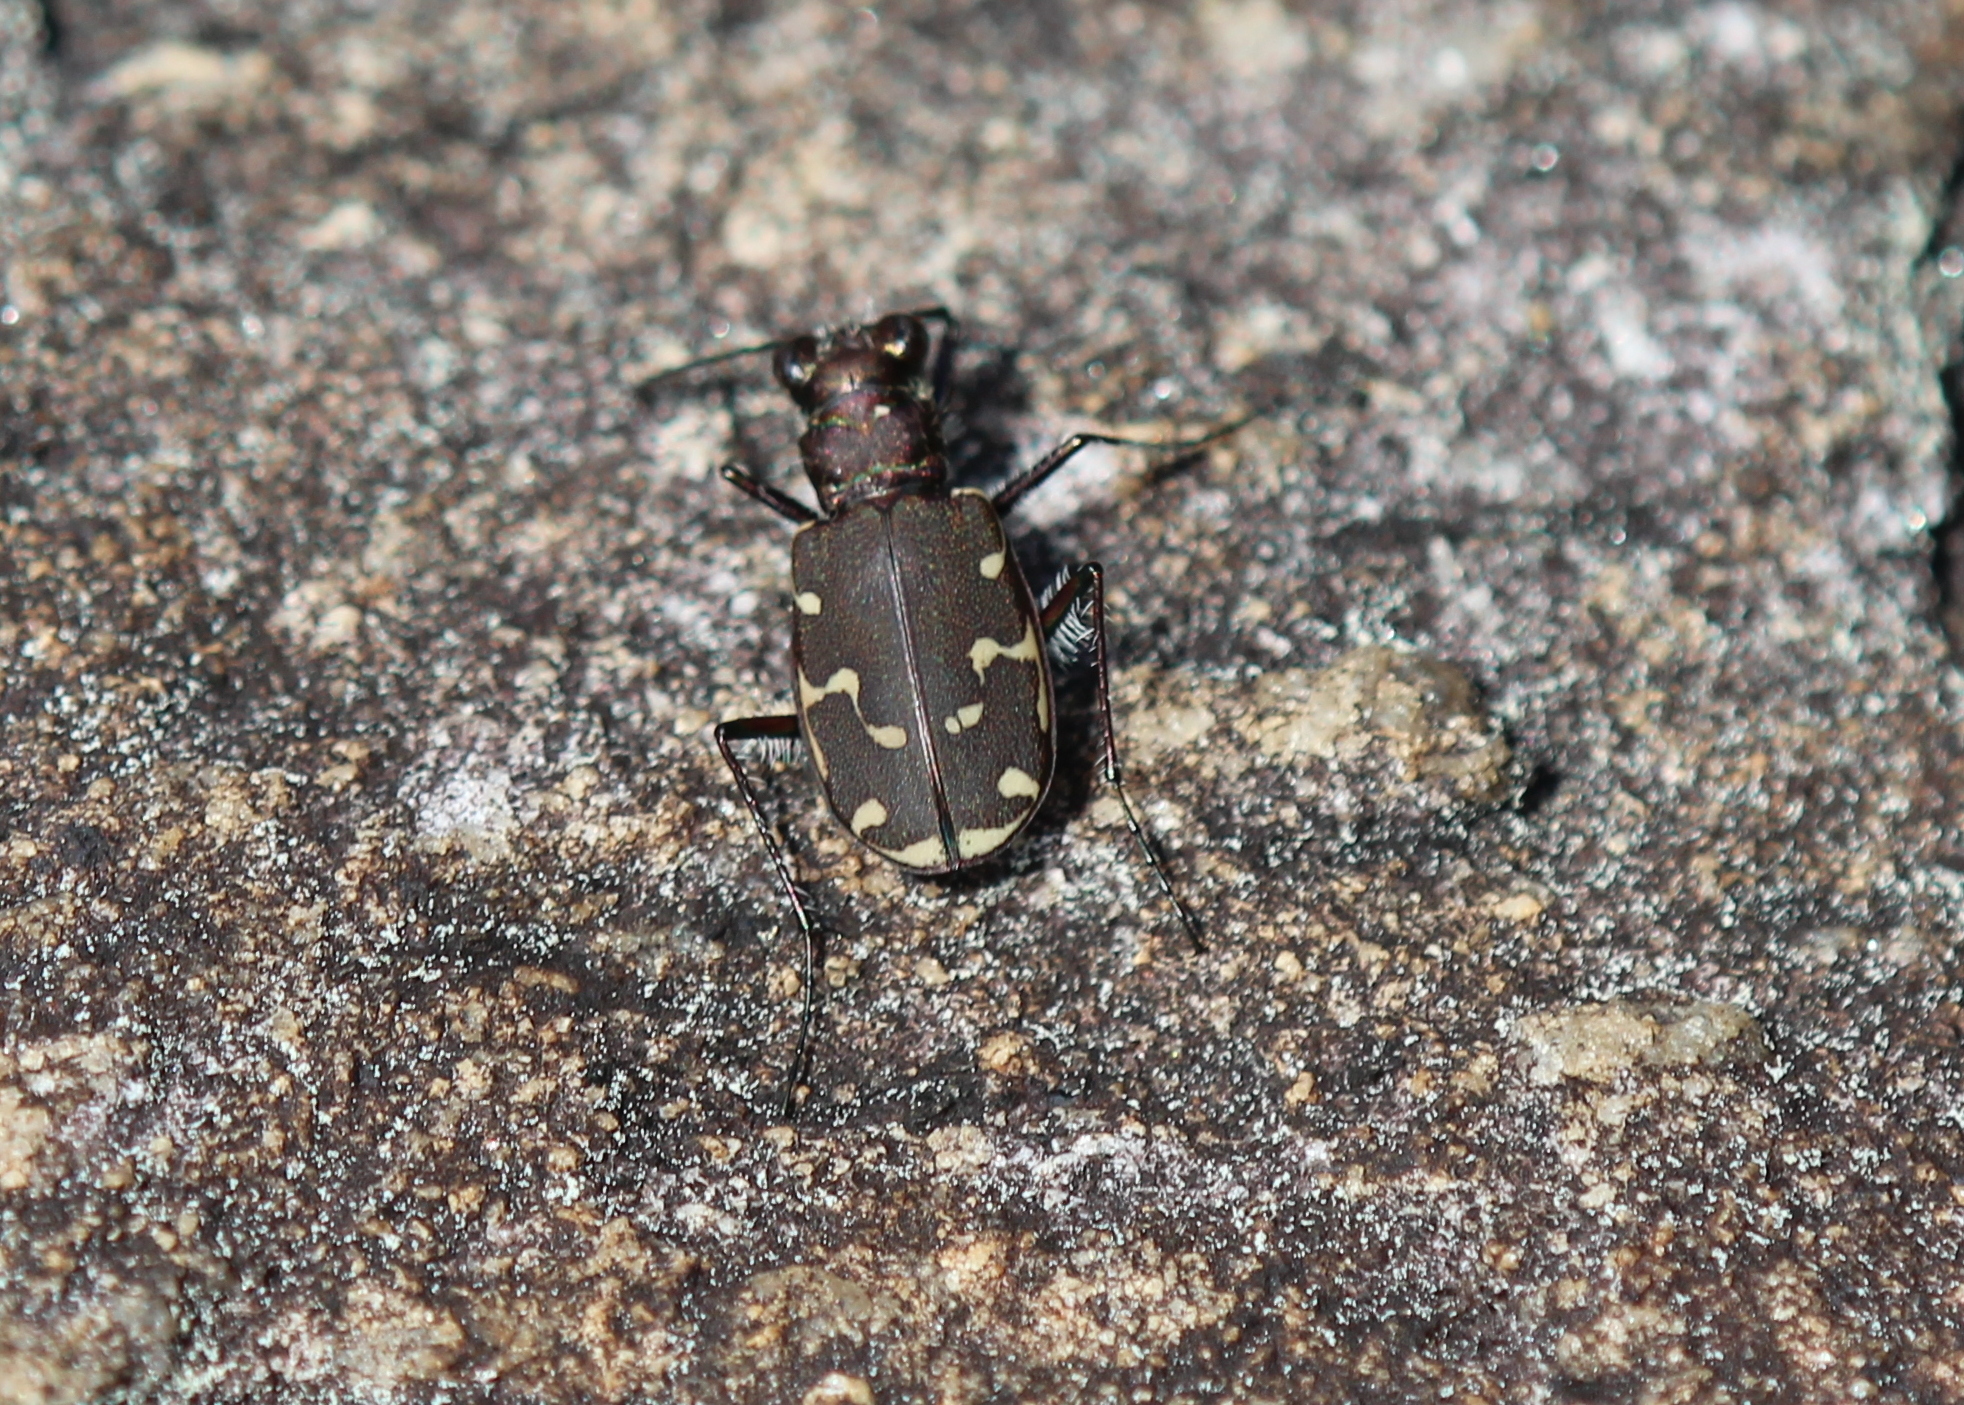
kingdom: Animalia
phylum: Arthropoda
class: Insecta
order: Coleoptera
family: Carabidae
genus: Cicindela
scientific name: Cicindela duodecimguttata
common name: Twelve-spotted tiger beetle
